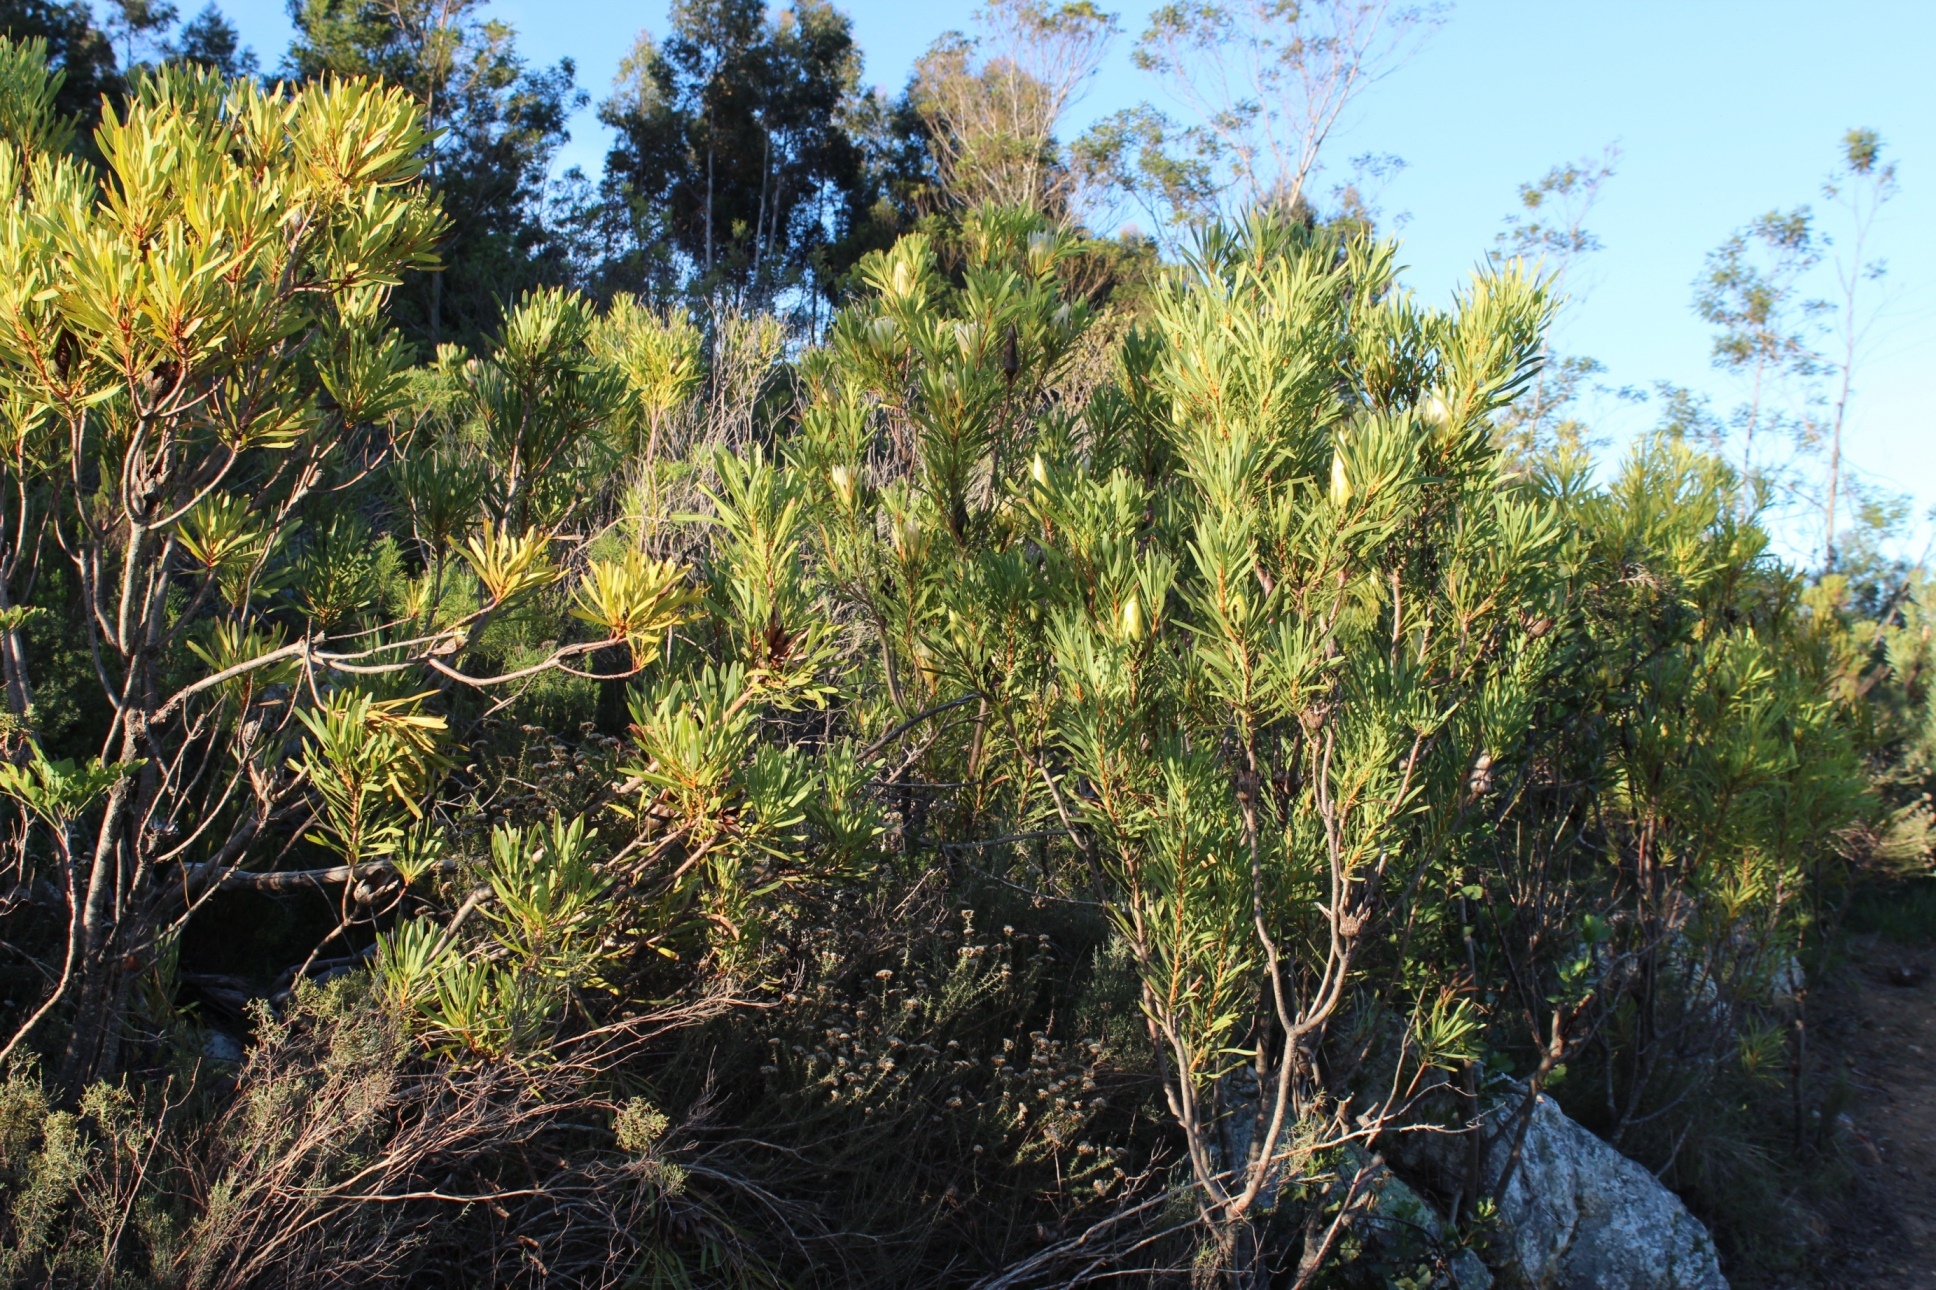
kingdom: Plantae
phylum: Tracheophyta
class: Magnoliopsida
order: Proteales
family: Proteaceae
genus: Protea
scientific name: Protea repens
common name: Sugarbush
